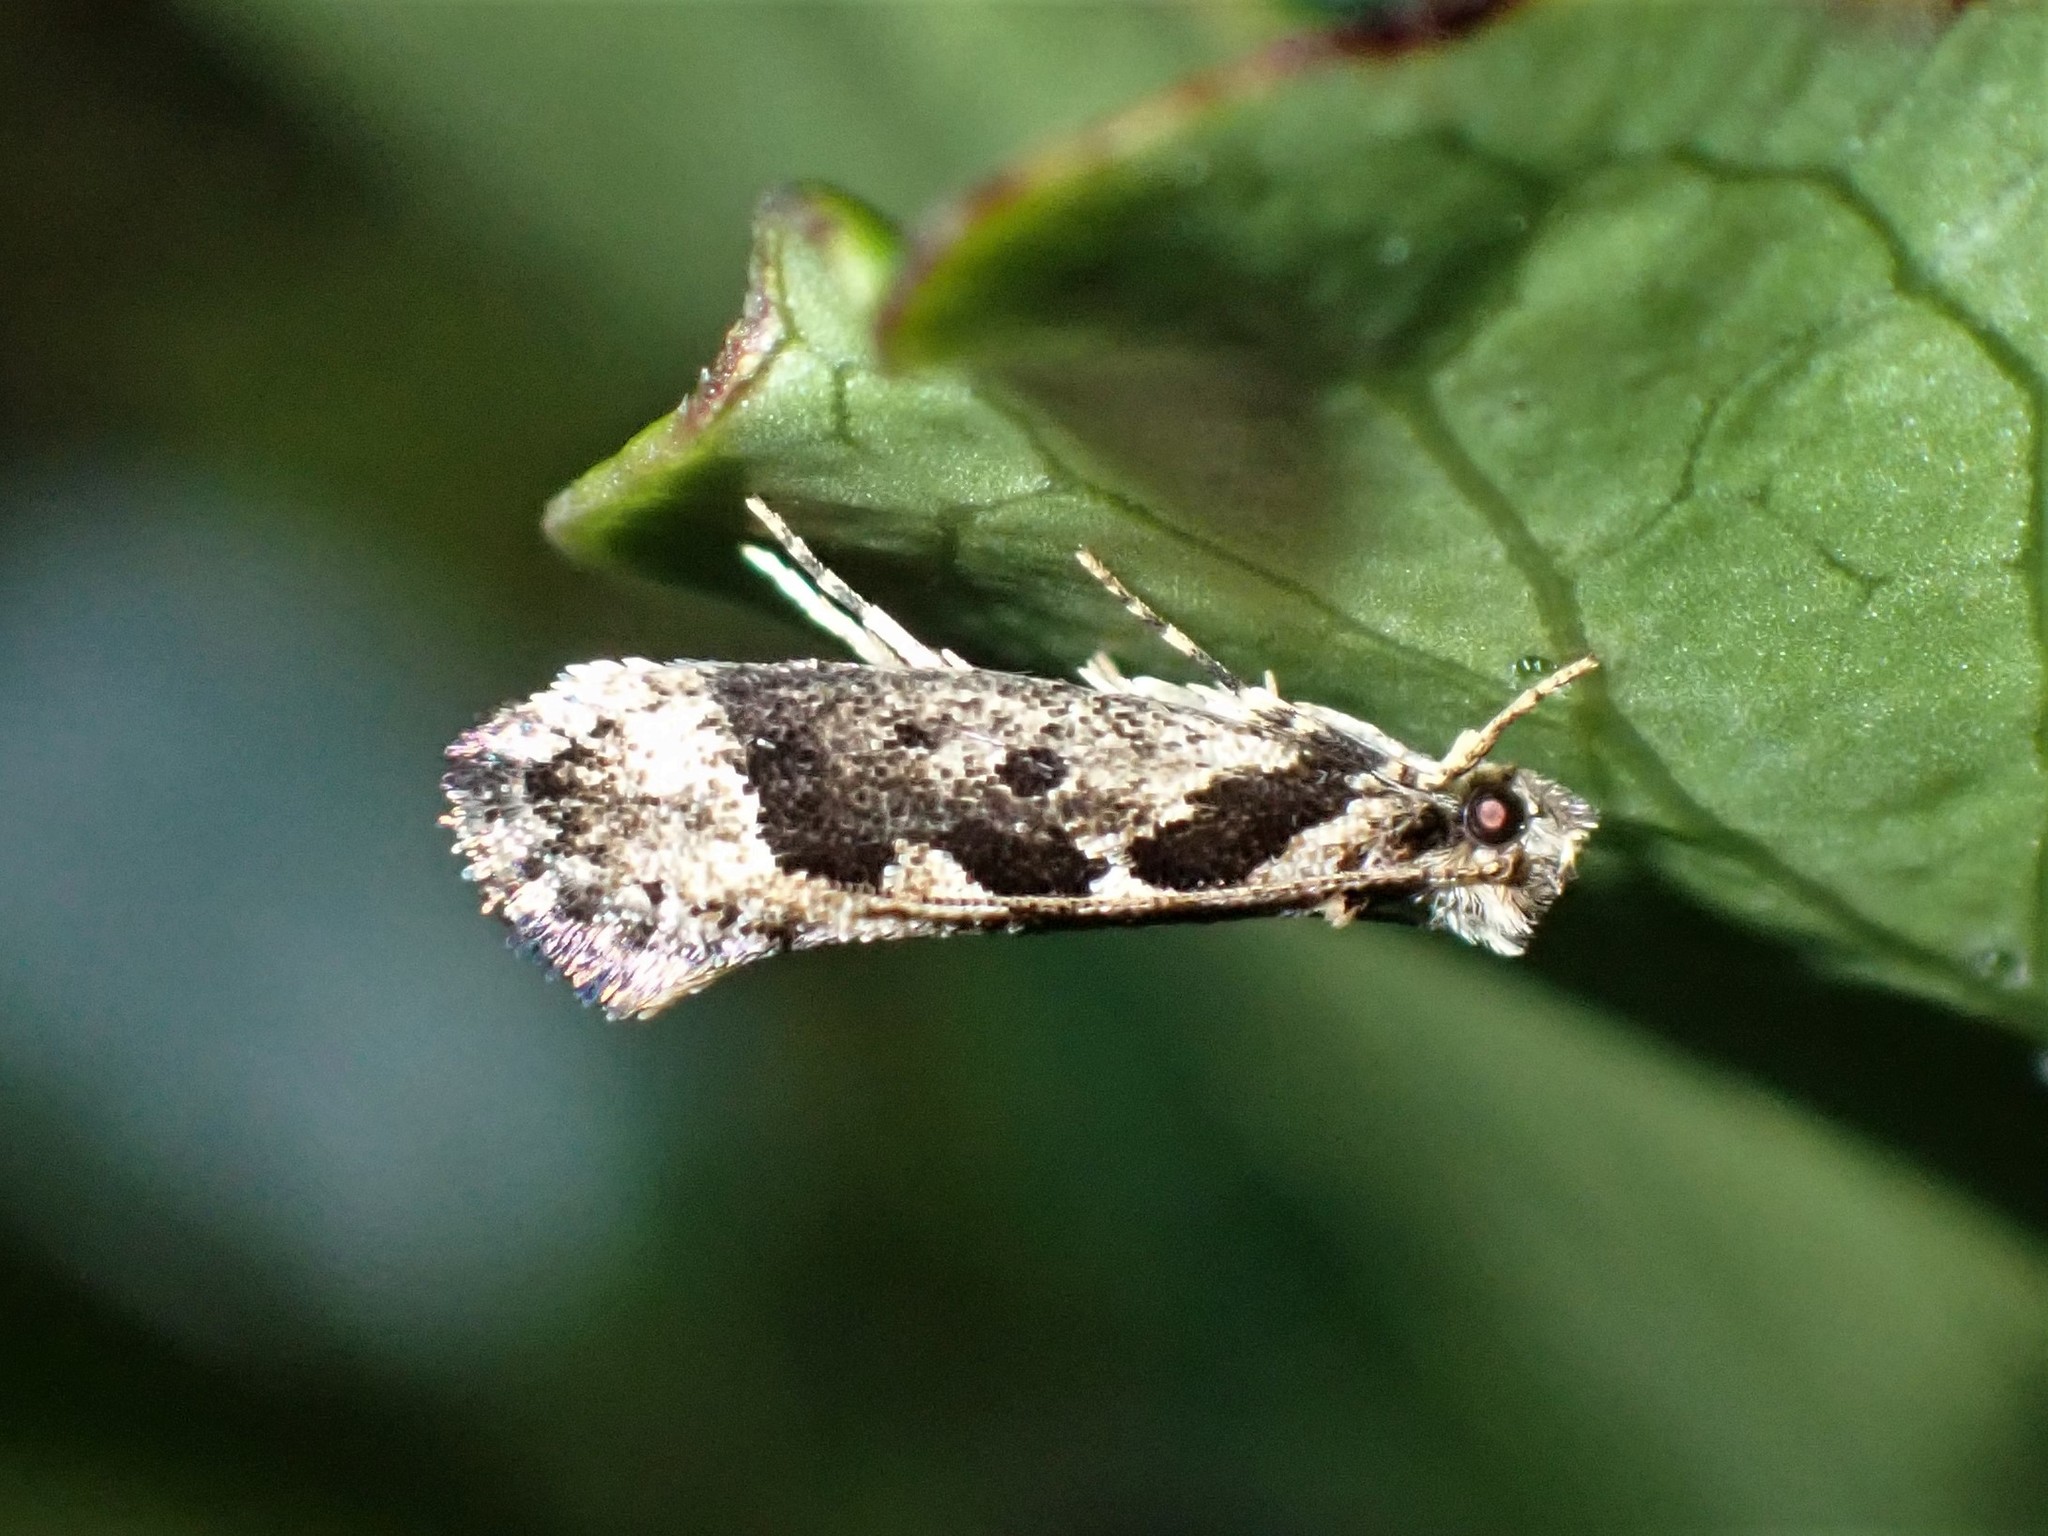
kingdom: Animalia
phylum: Arthropoda
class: Insecta
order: Lepidoptera
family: Tineidae
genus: Erechthias
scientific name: Erechthias capnitis
